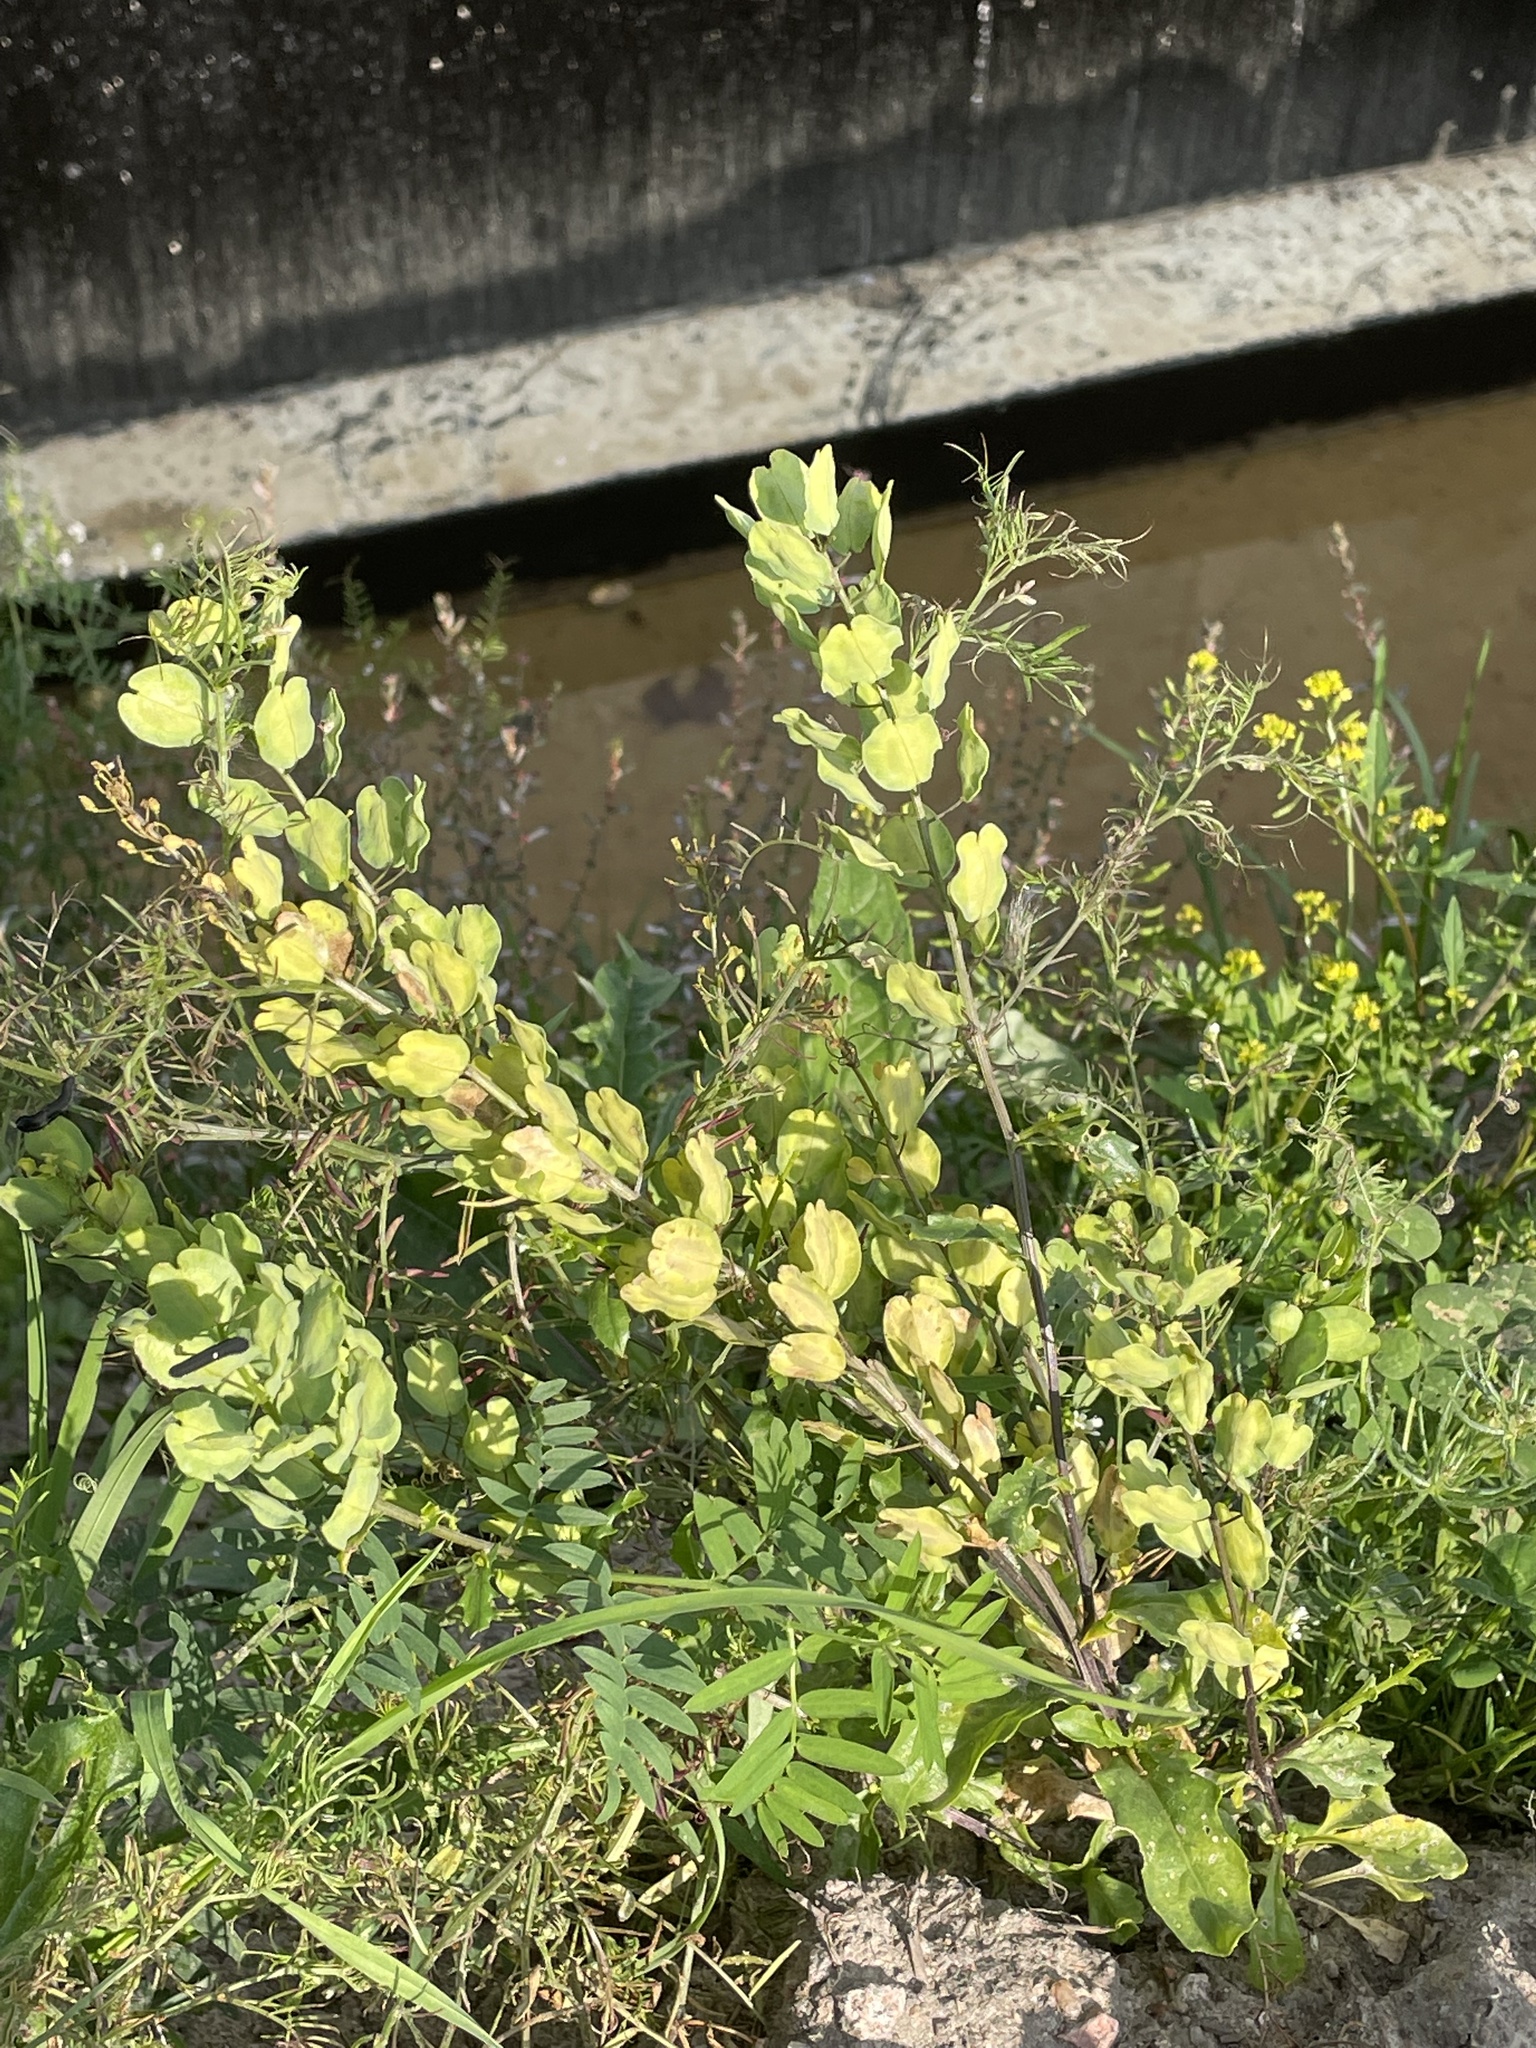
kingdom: Plantae
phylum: Tracheophyta
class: Magnoliopsida
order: Brassicales
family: Brassicaceae
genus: Thlaspi
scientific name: Thlaspi arvense
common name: Field pennycress
